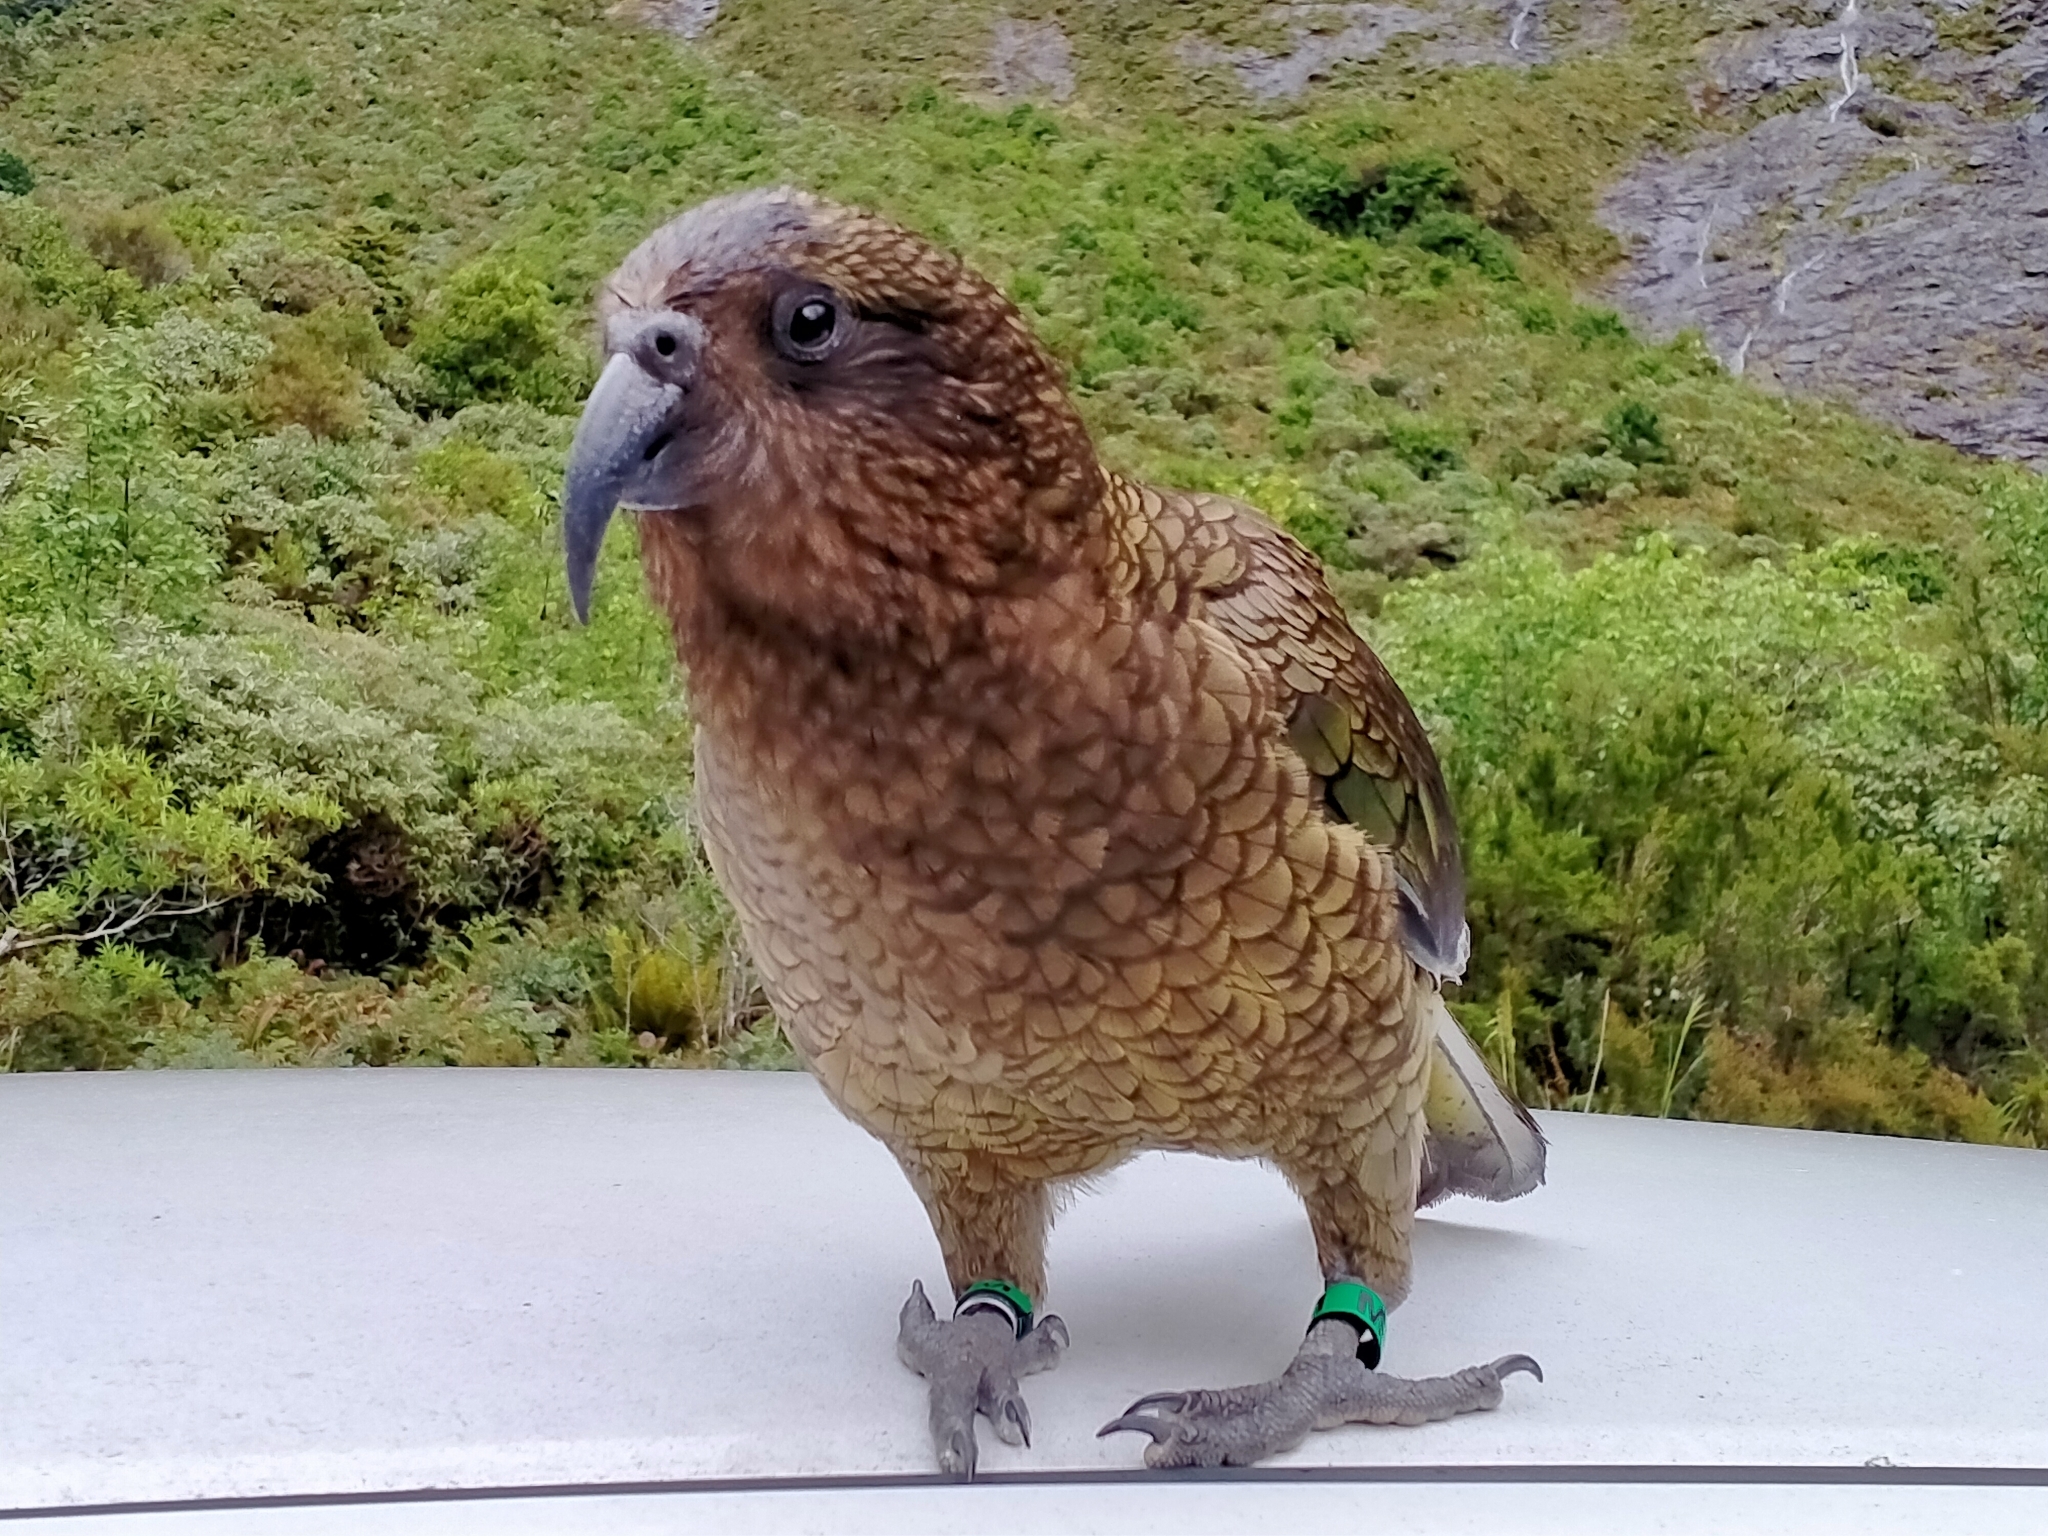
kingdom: Animalia
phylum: Chordata
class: Aves
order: Psittaciformes
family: Psittacidae
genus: Nestor
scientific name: Nestor notabilis
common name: Kea
